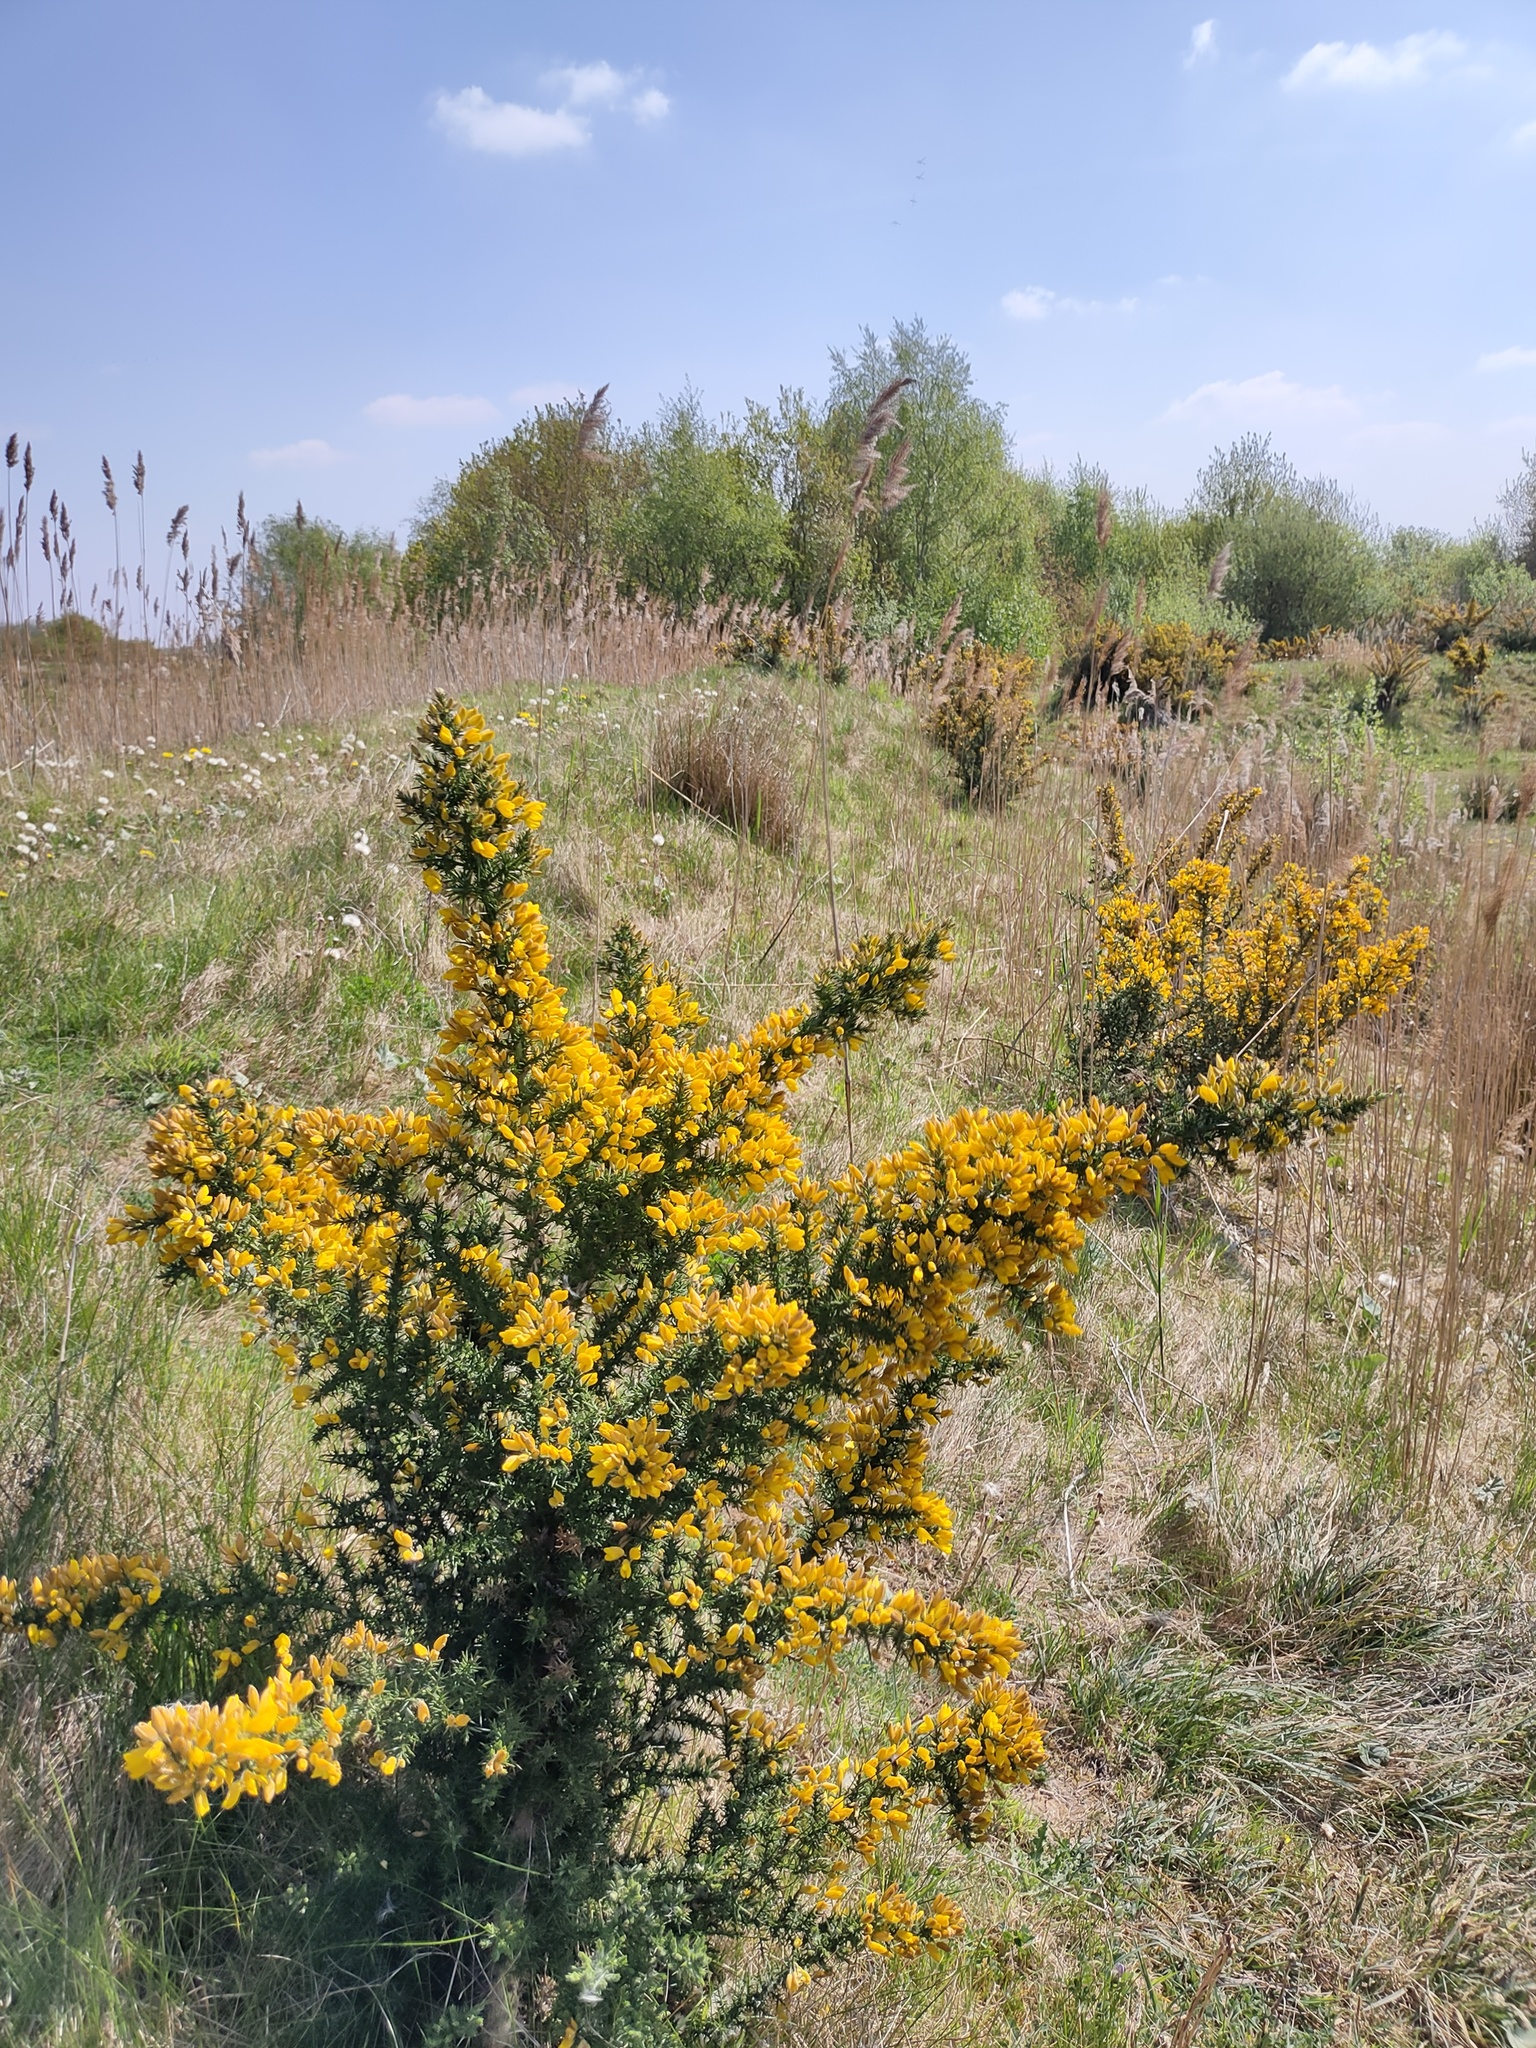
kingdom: Plantae
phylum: Tracheophyta
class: Magnoliopsida
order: Fabales
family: Fabaceae
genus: Ulex
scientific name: Ulex europaeus
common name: Common gorse
